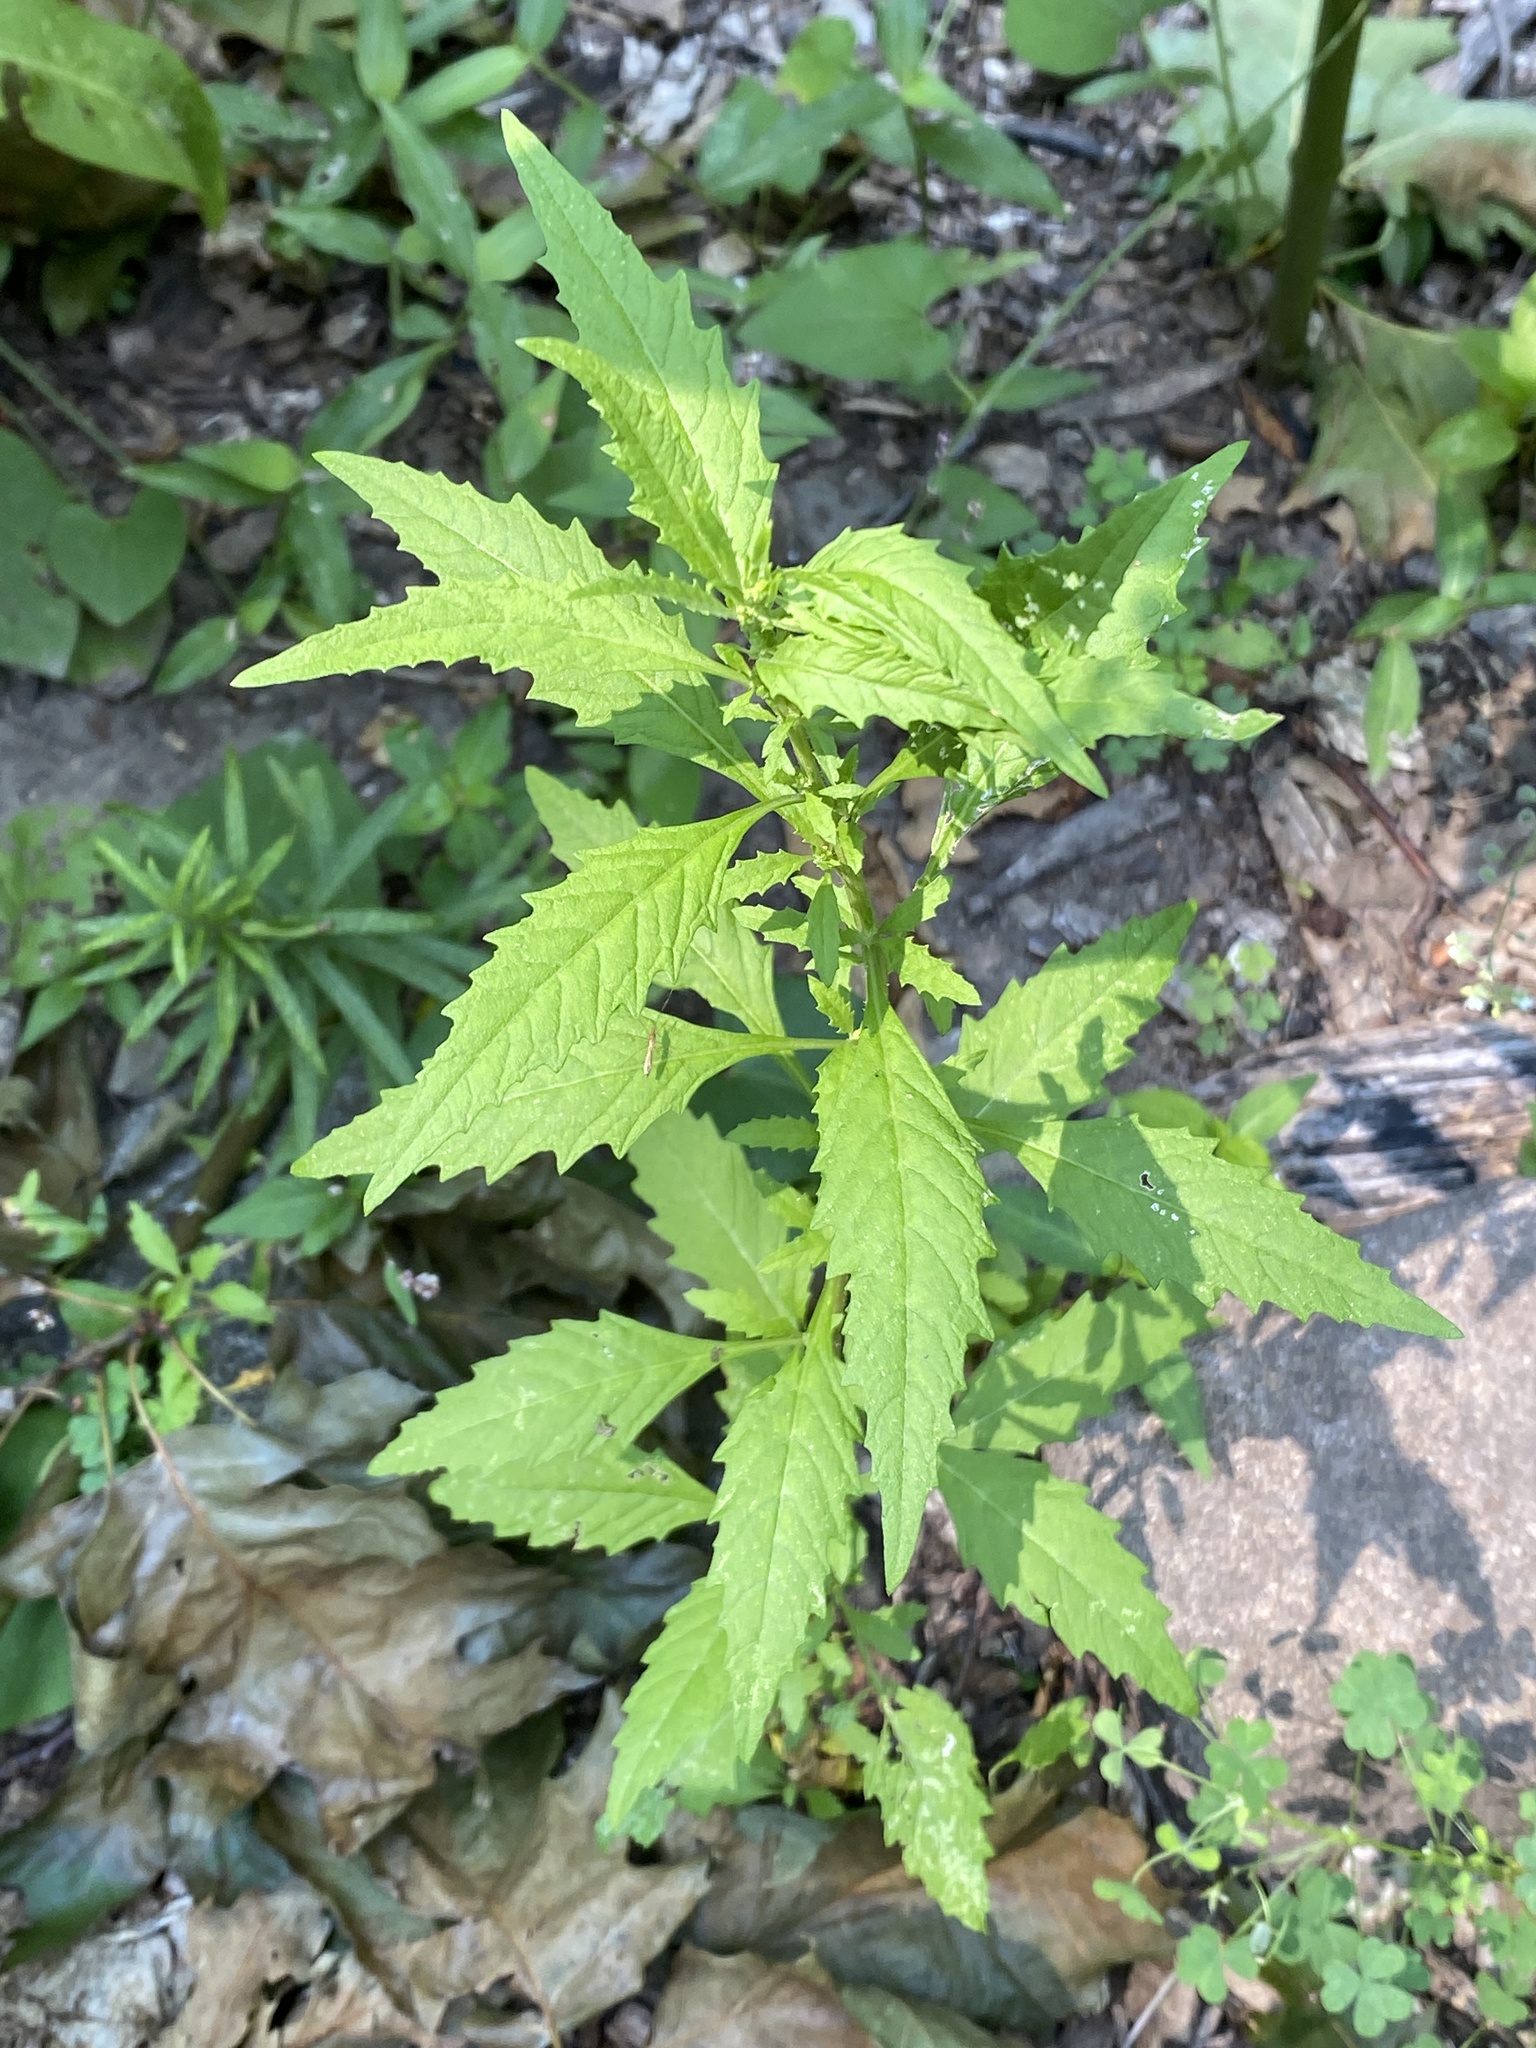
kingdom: Plantae
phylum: Tracheophyta
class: Magnoliopsida
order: Caryophyllales
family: Amaranthaceae
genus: Dysphania
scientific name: Dysphania ambrosioides
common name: Wormseed
